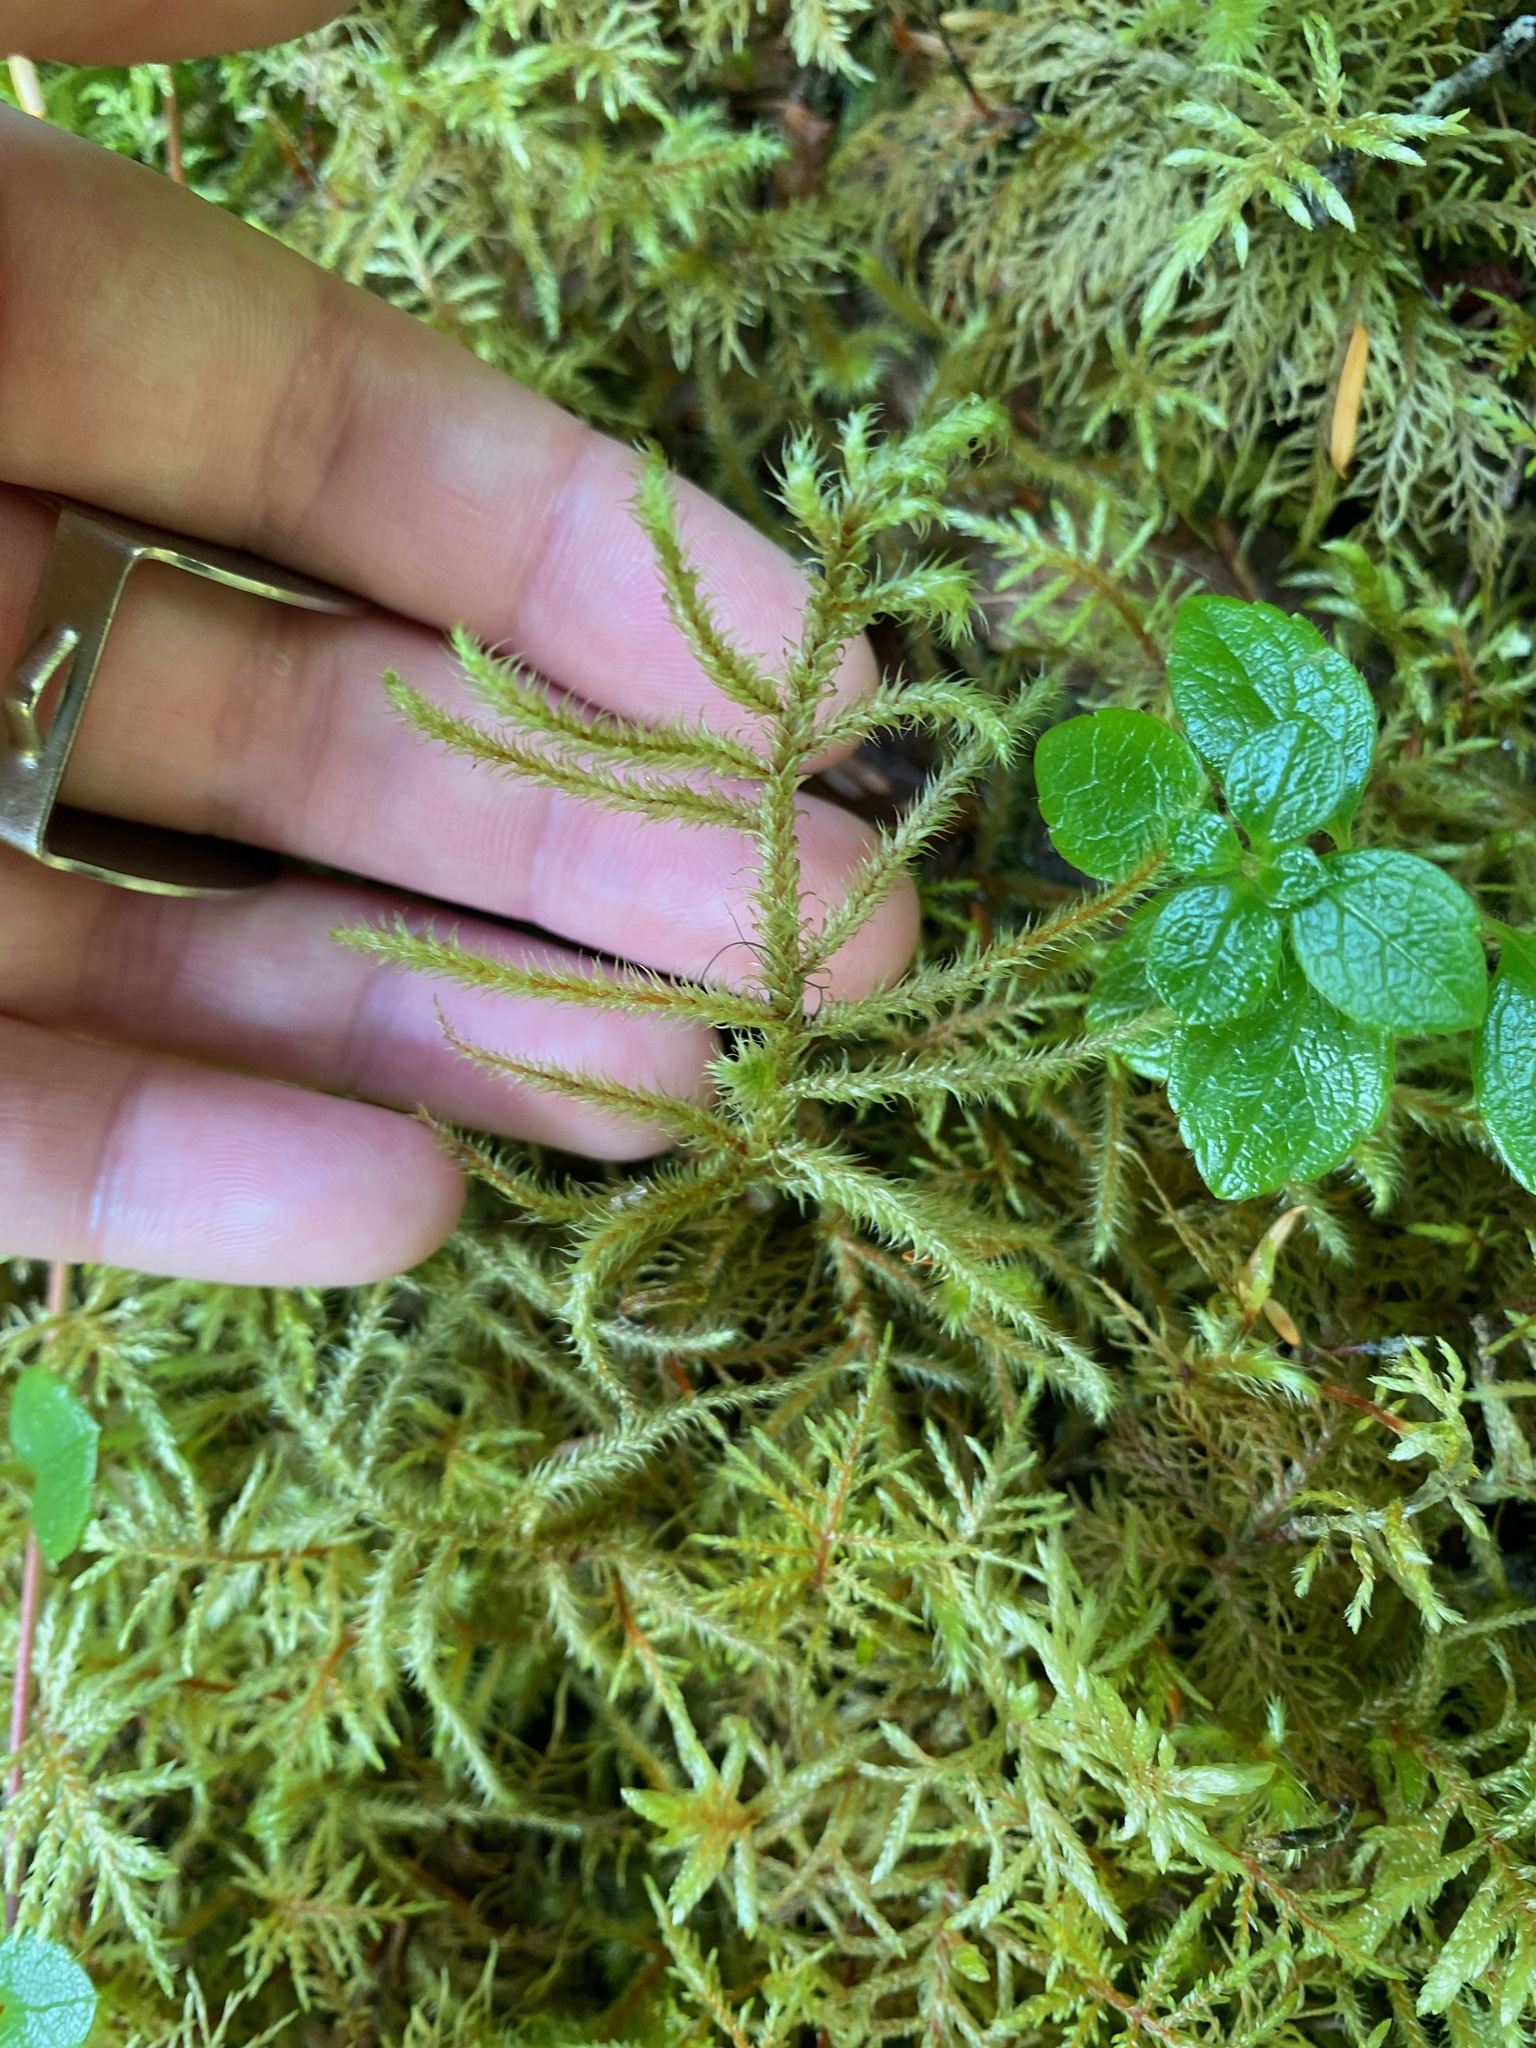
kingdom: Plantae
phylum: Bryophyta
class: Bryopsida
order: Hypnales
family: Hylocomiaceae
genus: Rhytidiadelphus
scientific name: Rhytidiadelphus loreus
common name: Lanky moss
